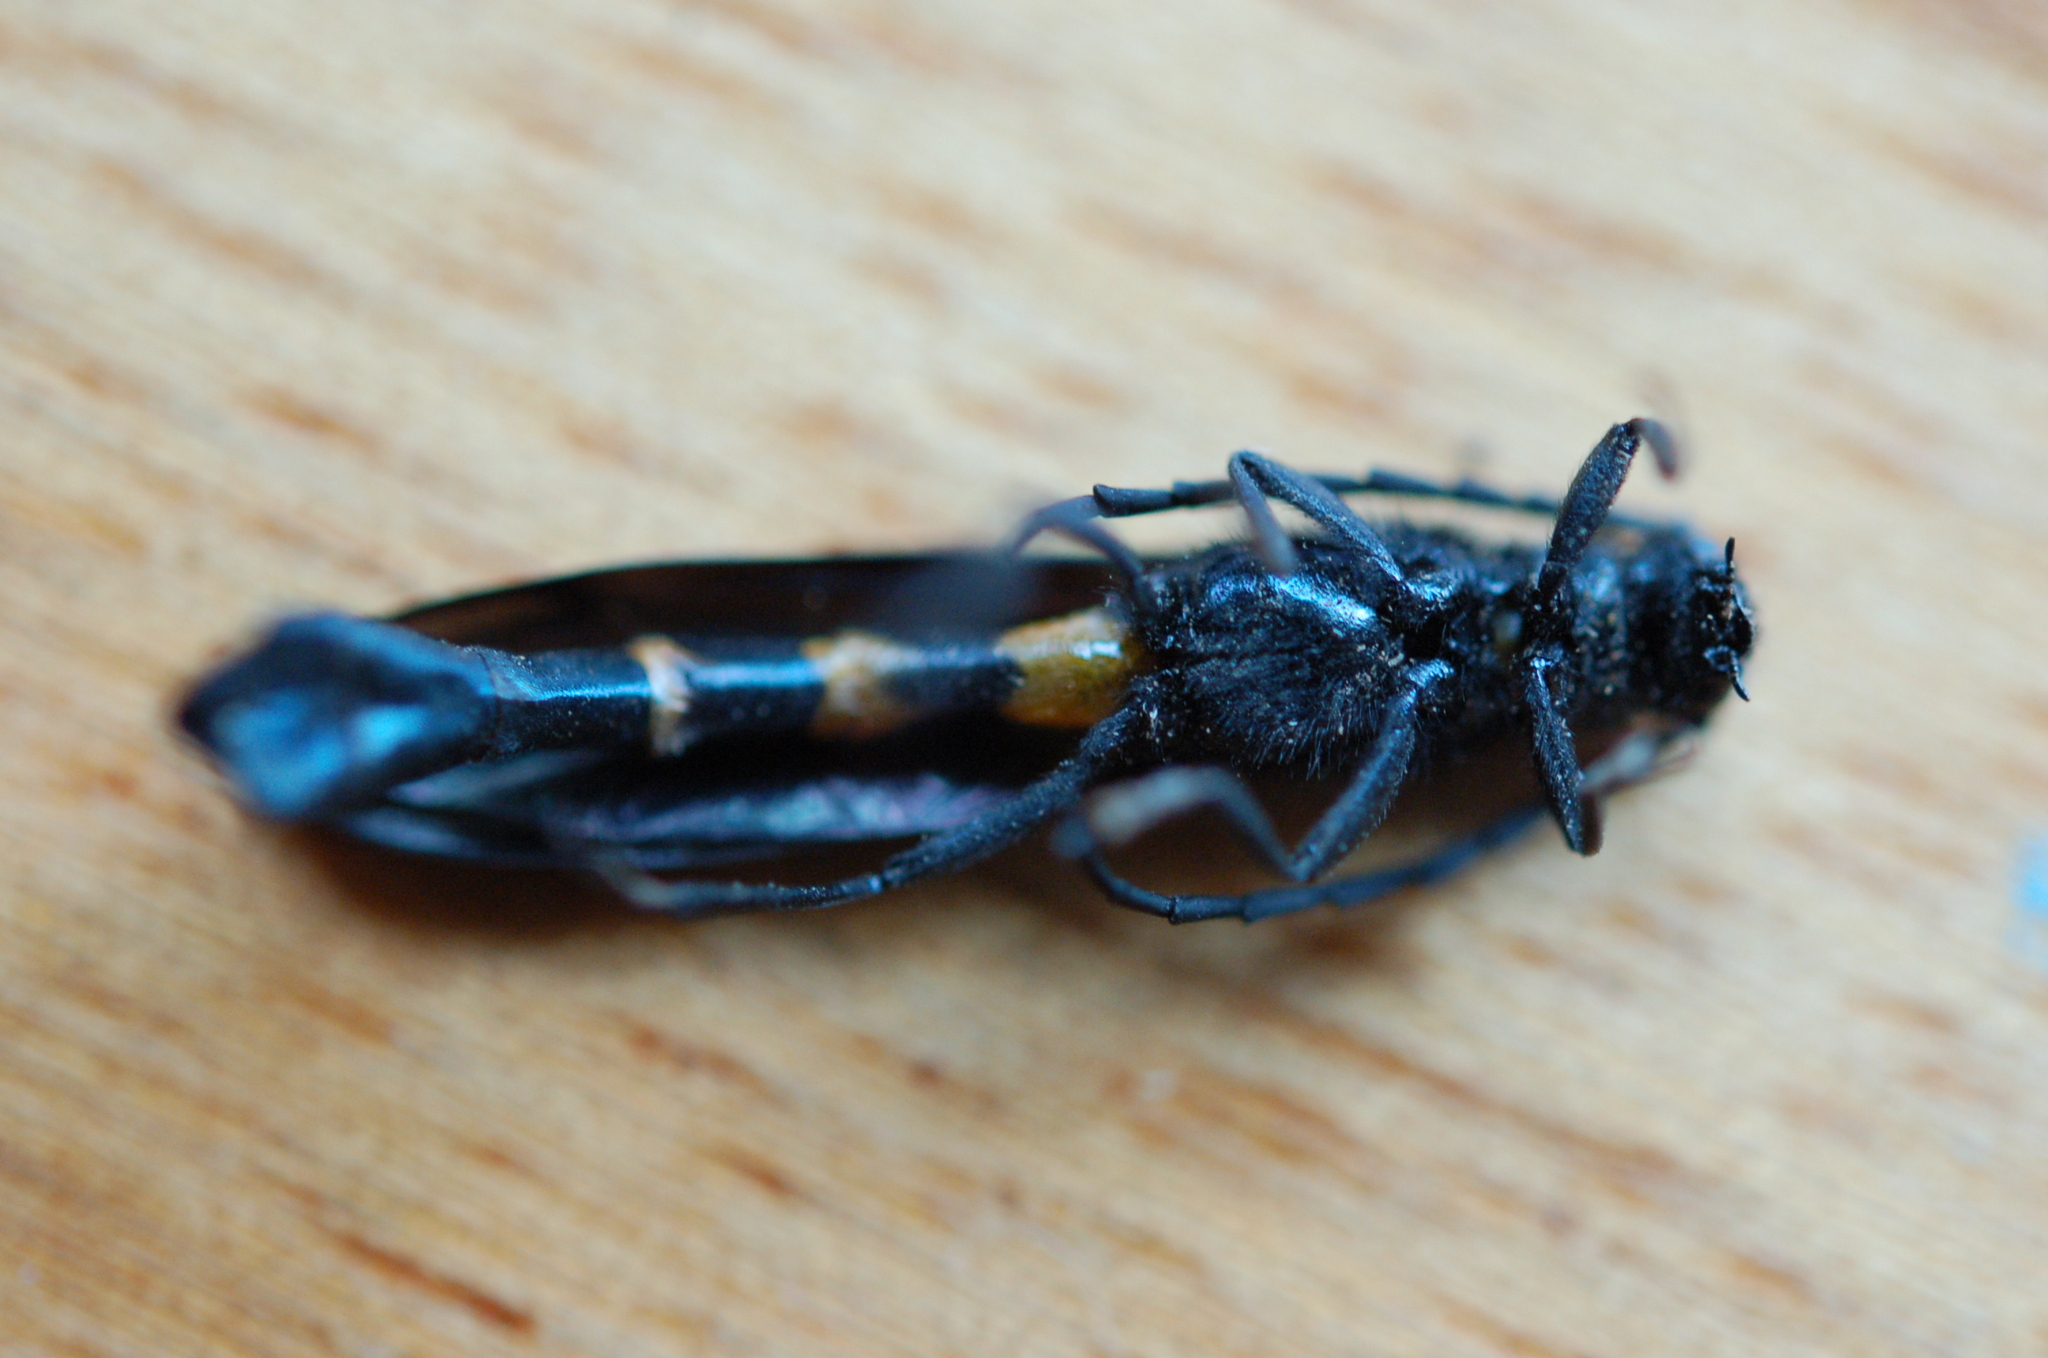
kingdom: Animalia
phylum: Arthropoda
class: Insecta
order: Coleoptera
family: Cerambycidae
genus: Rhathymoscelis
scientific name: Rhathymoscelis haldemanii
